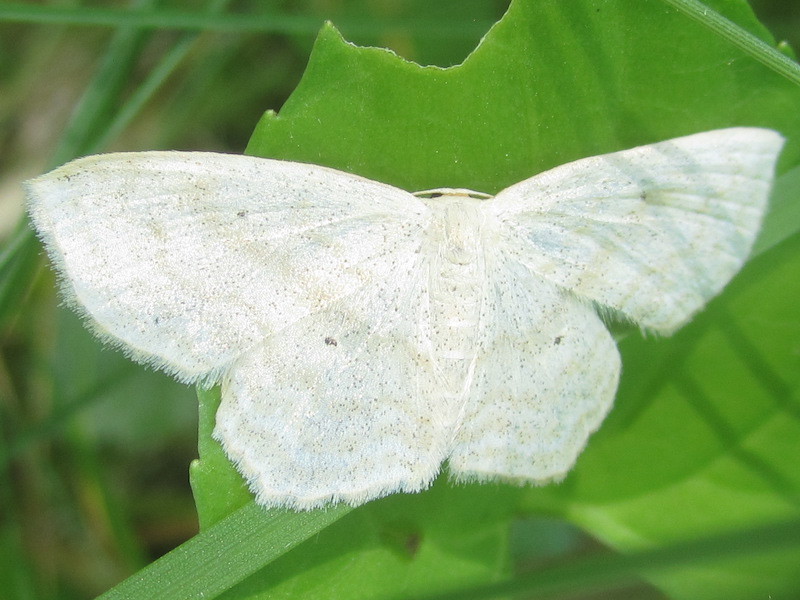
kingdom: Animalia
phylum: Arthropoda
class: Insecta
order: Lepidoptera
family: Geometridae
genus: Scopula
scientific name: Scopula limboundata
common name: Large lace border
